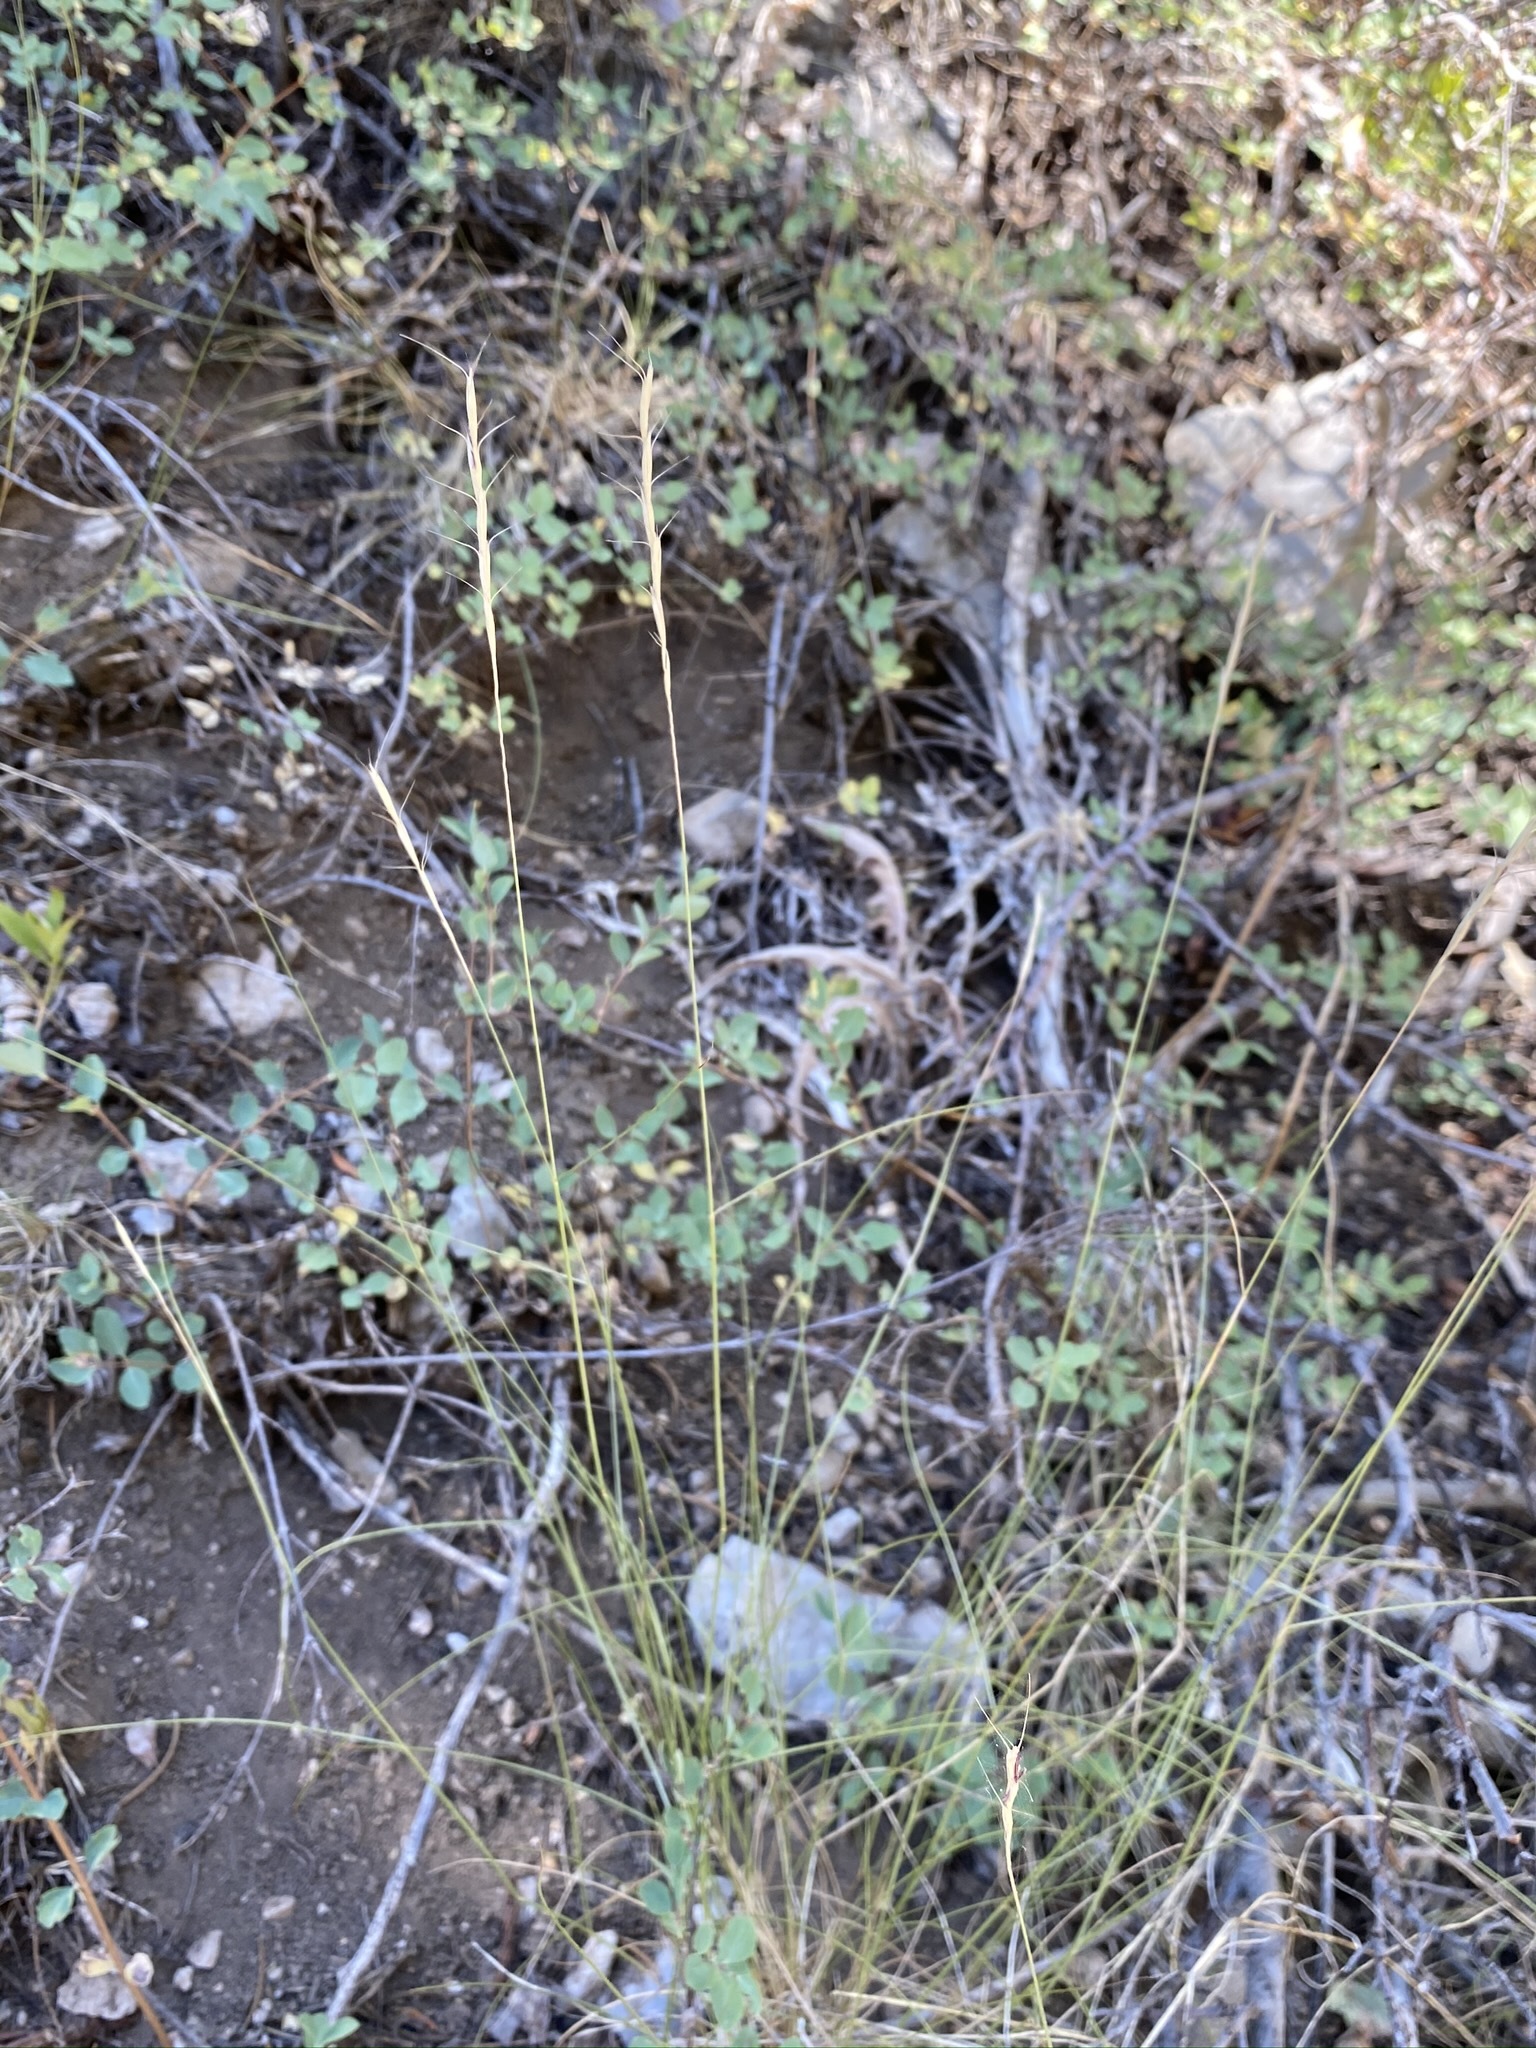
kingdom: Plantae
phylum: Tracheophyta
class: Liliopsida
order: Poales
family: Poaceae
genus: Pseudoroegneria
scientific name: Pseudoroegneria spicata
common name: Bluebunch wheatgrass
